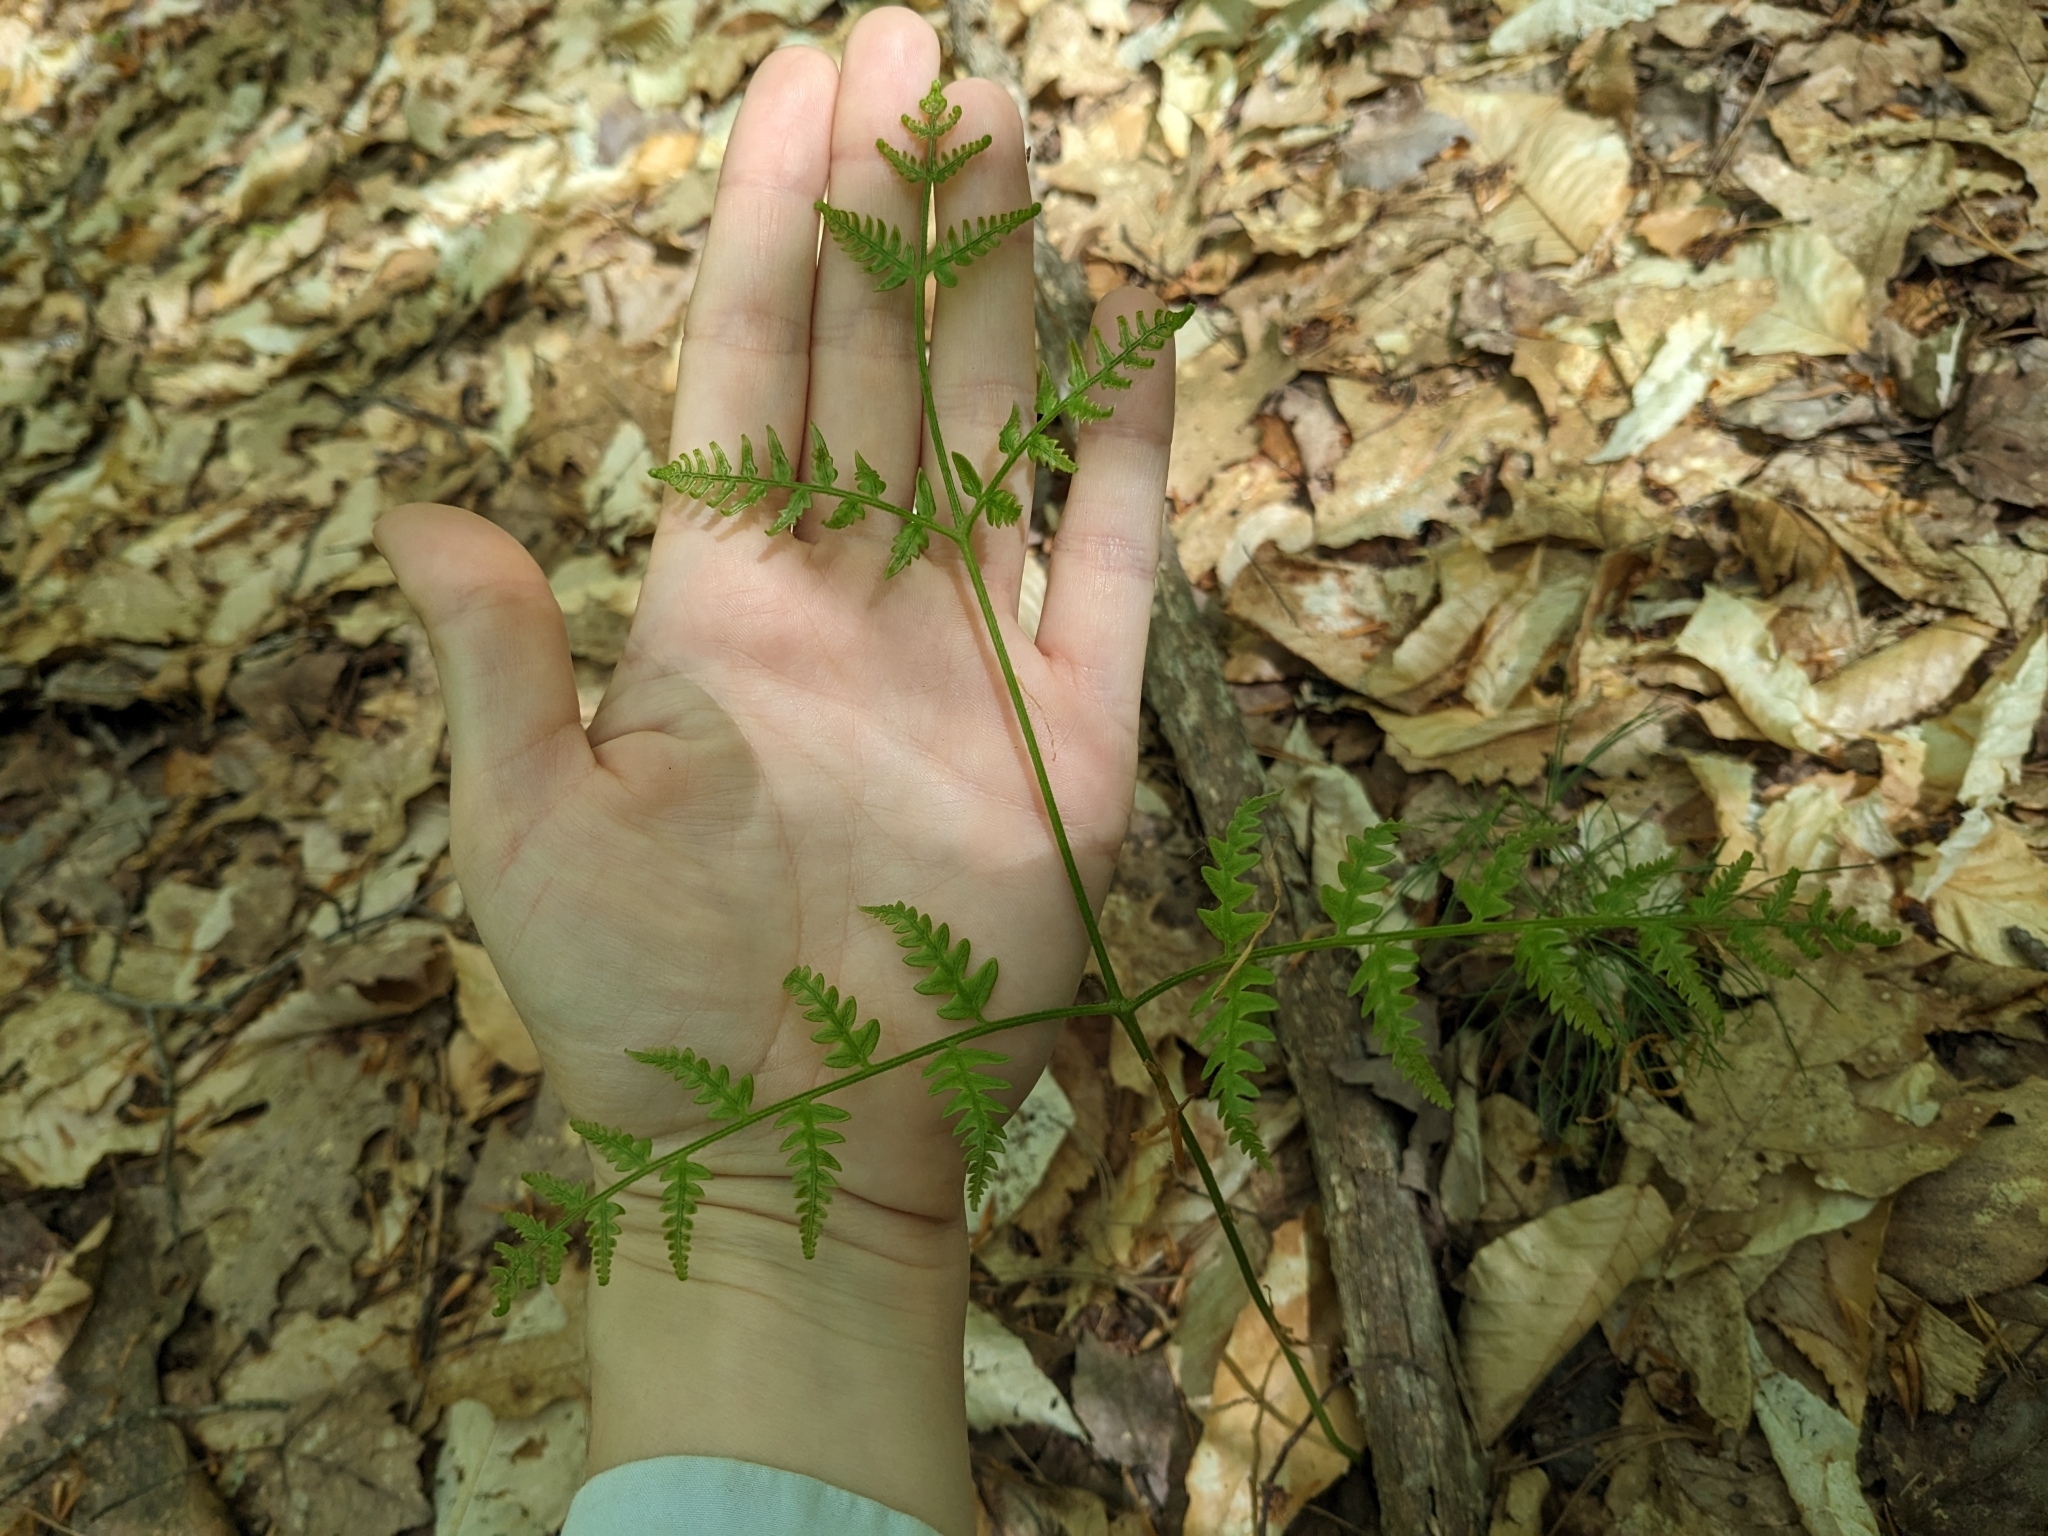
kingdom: Plantae
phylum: Tracheophyta
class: Polypodiopsida
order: Polypodiales
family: Dennstaedtiaceae
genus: Pteridium
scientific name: Pteridium aquilinum
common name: Bracken
